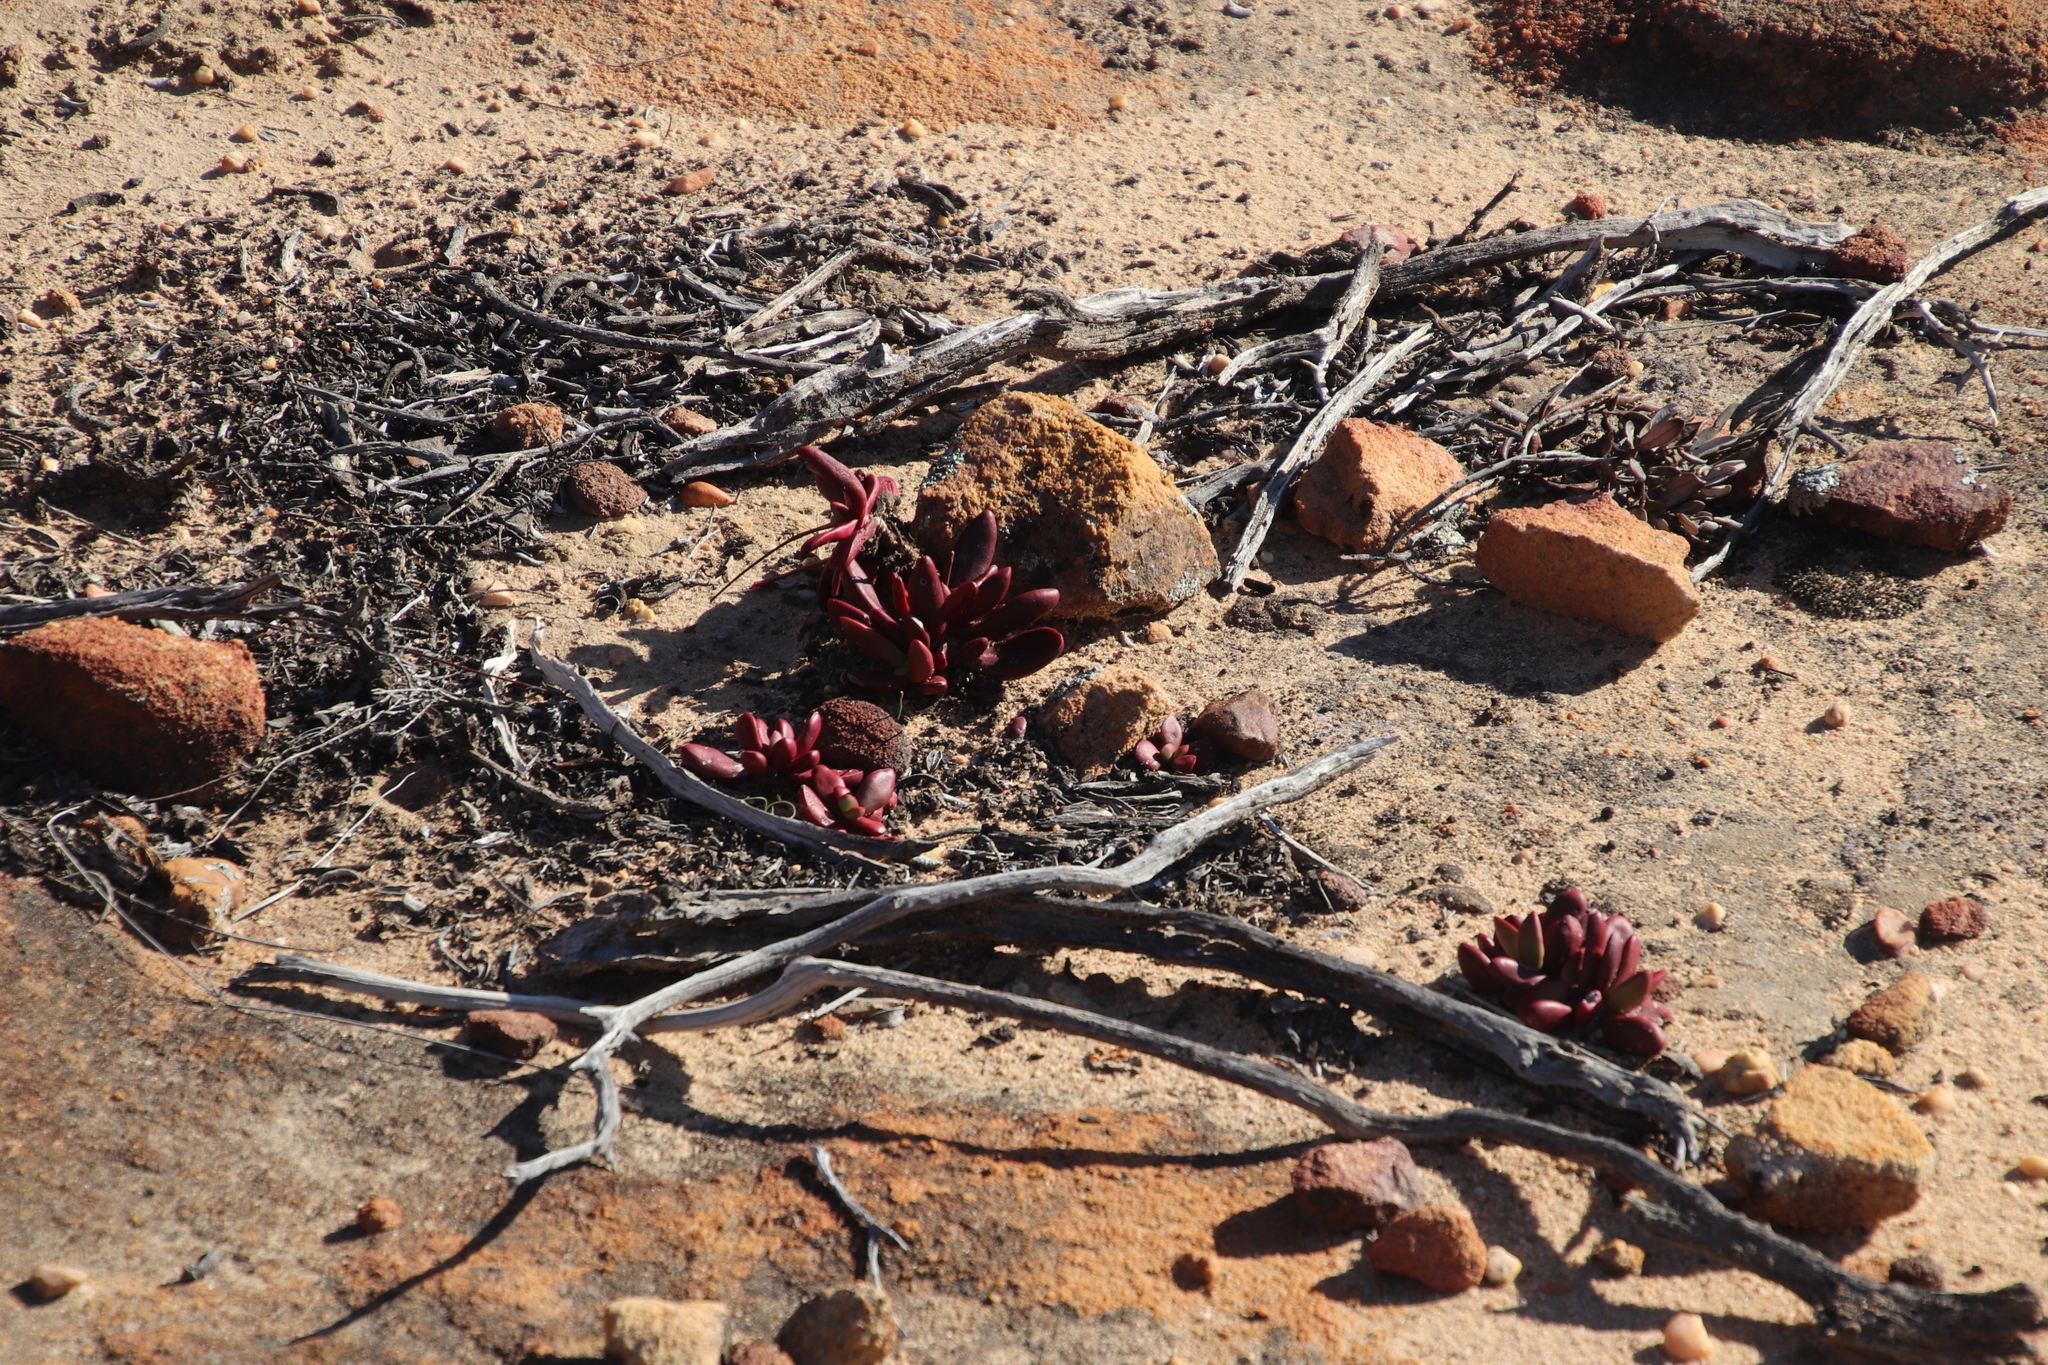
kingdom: Plantae
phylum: Tracheophyta
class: Magnoliopsida
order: Saxifragales
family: Crassulaceae
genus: Crassula
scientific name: Crassula clavata
